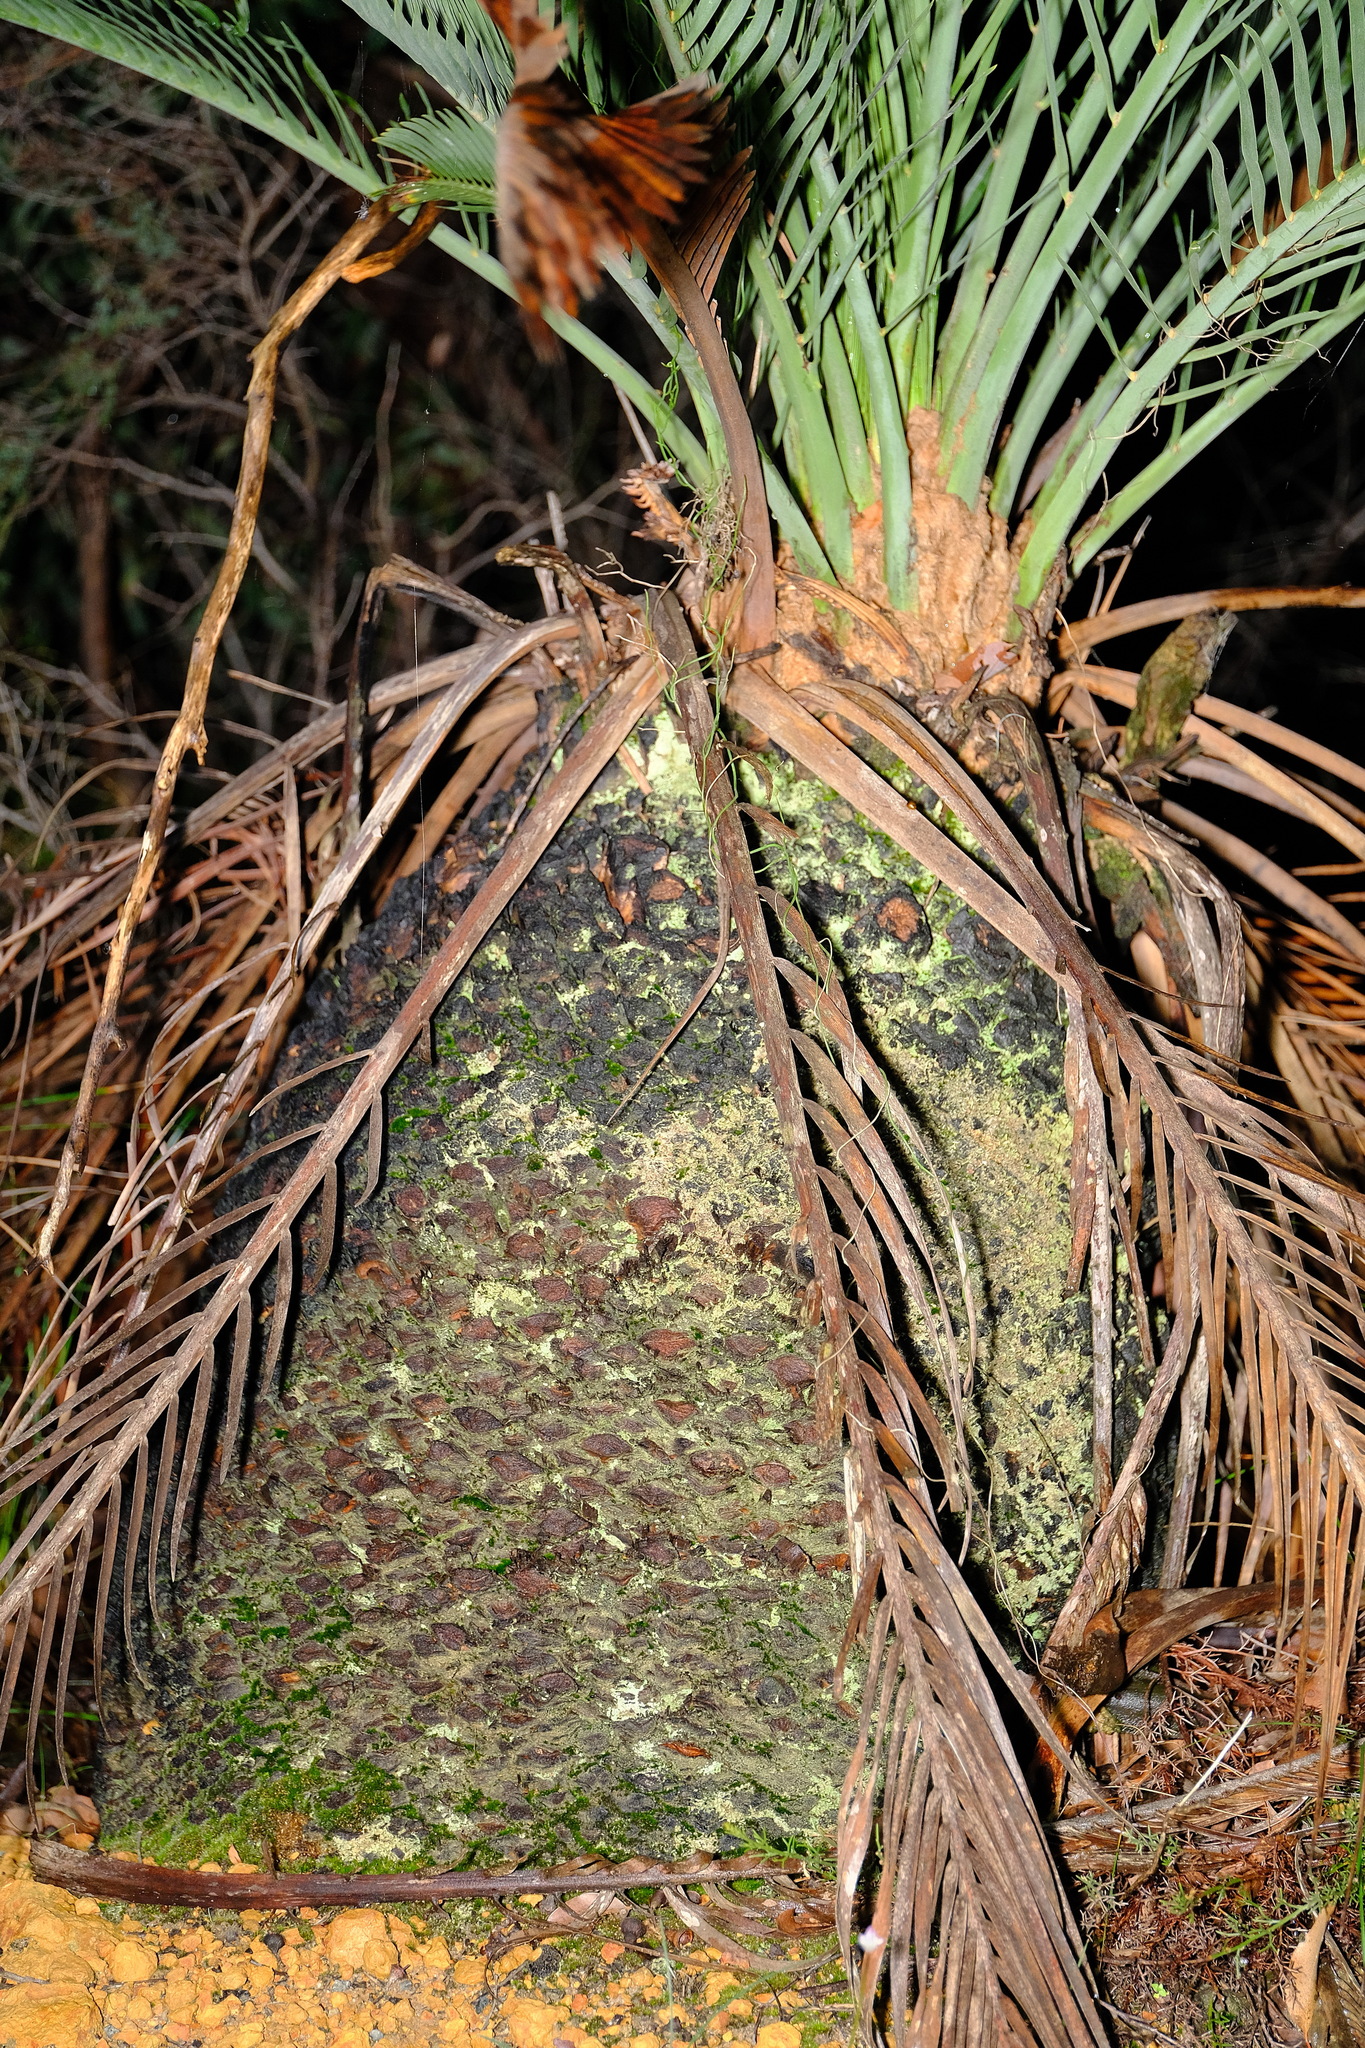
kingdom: Plantae
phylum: Tracheophyta
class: Cycadopsida
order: Cycadales
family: Zamiaceae
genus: Macrozamia
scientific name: Macrozamia fraseri
